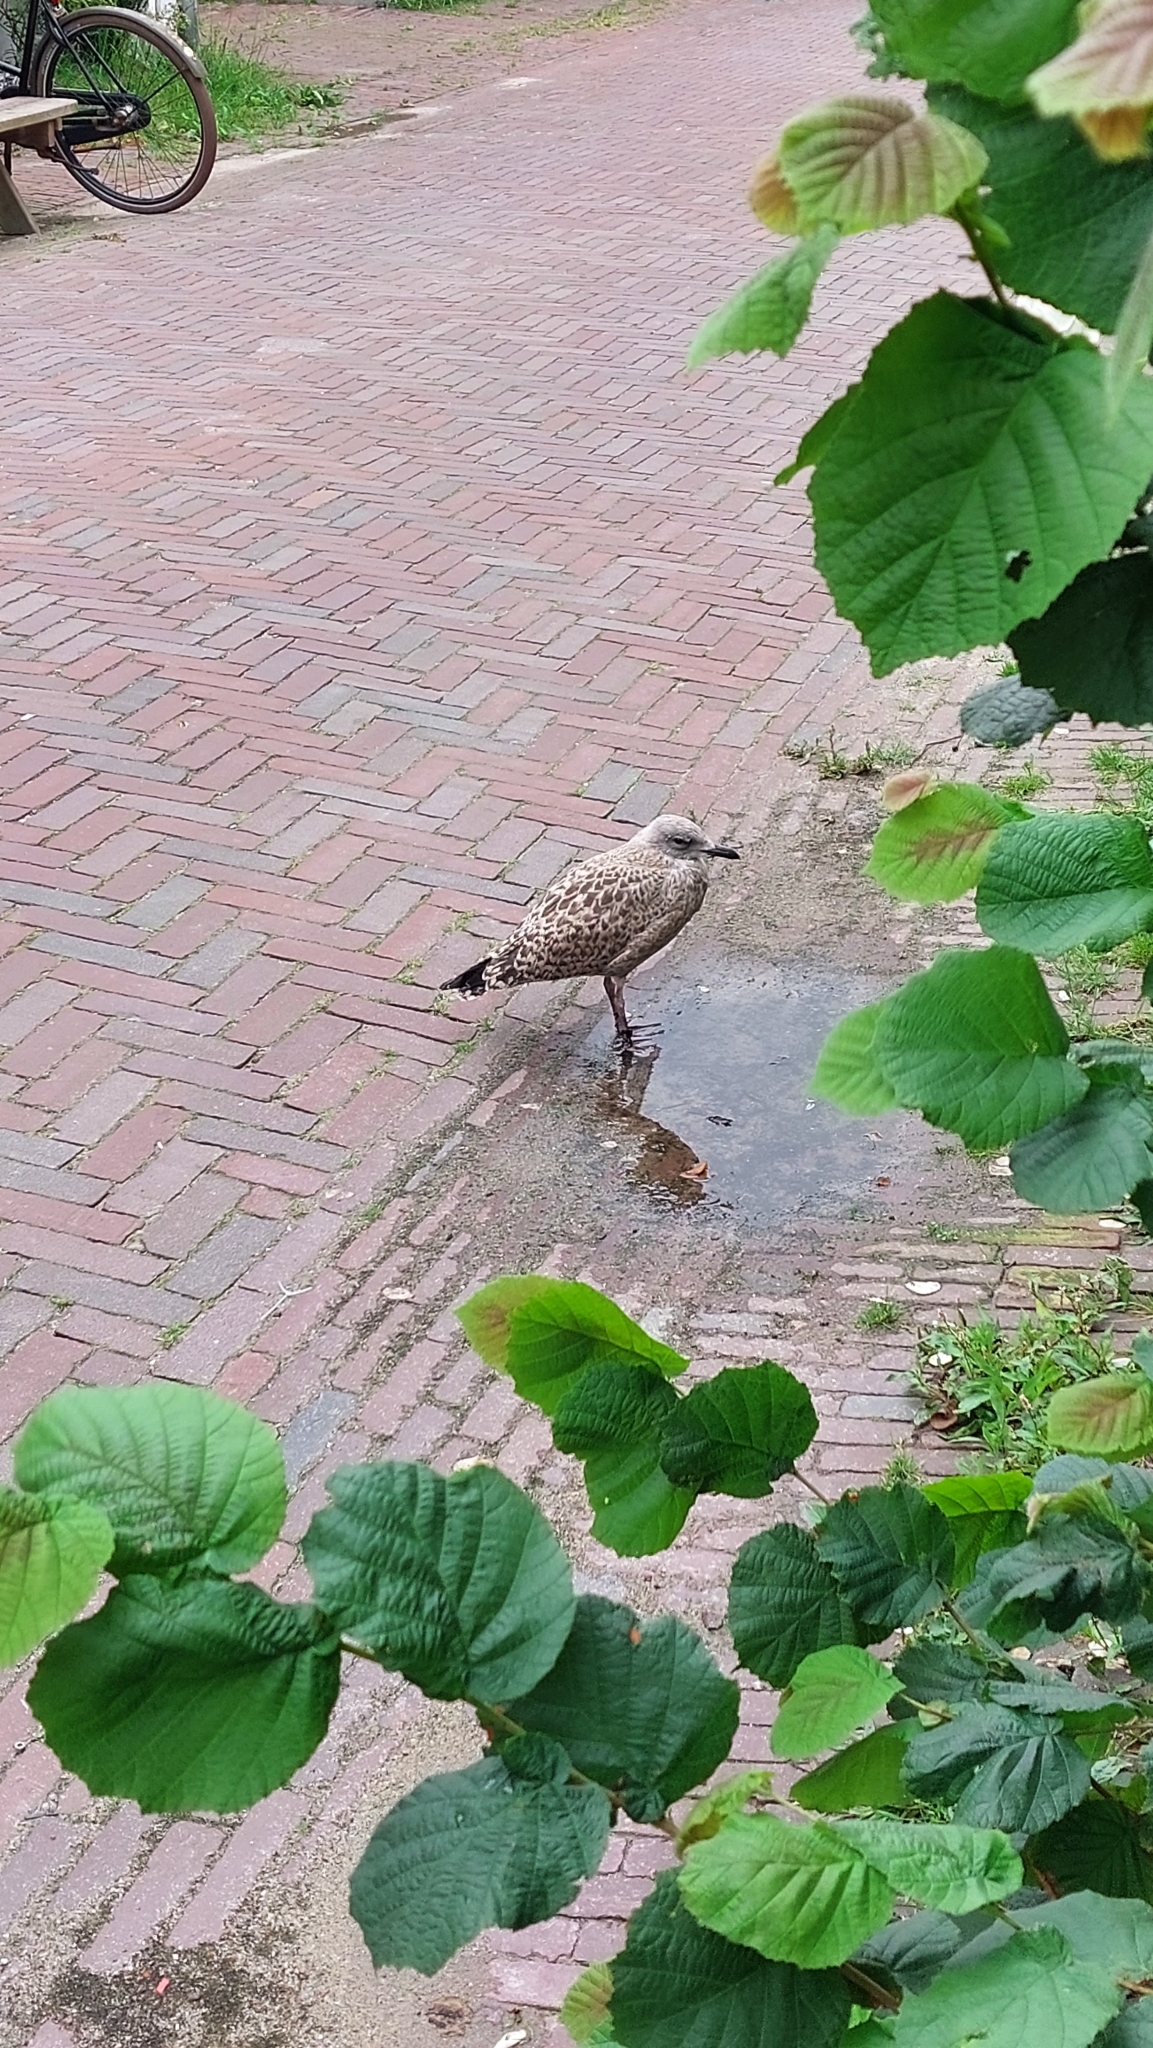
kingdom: Animalia
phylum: Chordata
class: Aves
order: Charadriiformes
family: Laridae
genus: Larus
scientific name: Larus argentatus
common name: Herring gull
